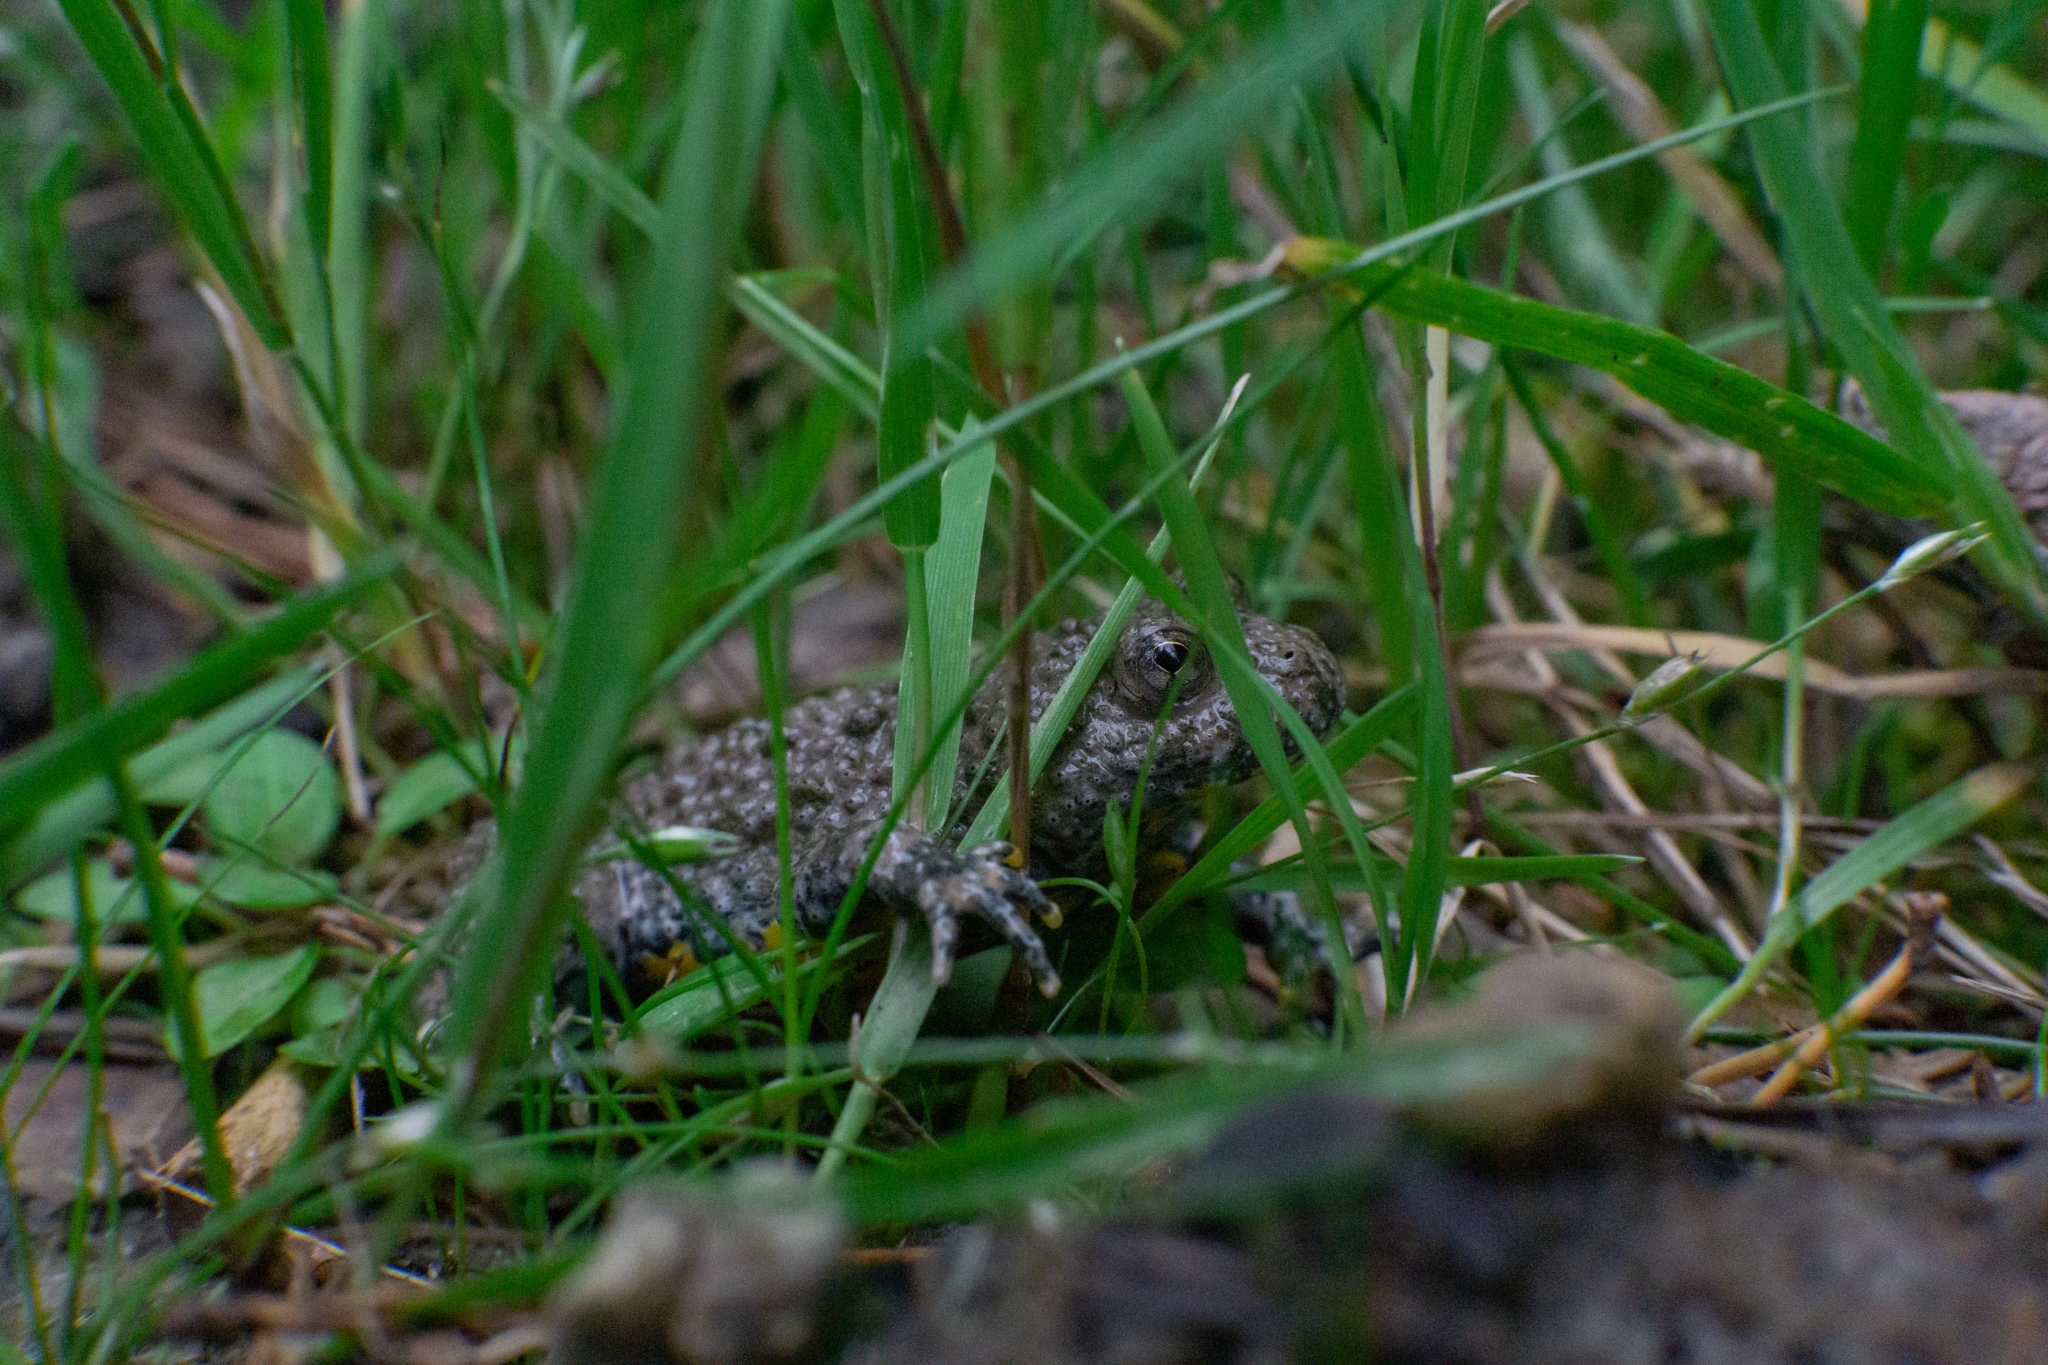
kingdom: Animalia
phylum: Chordata
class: Amphibia
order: Anura
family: Bombinatoridae
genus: Bombina
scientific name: Bombina variegata
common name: Yellow-bellied toad
